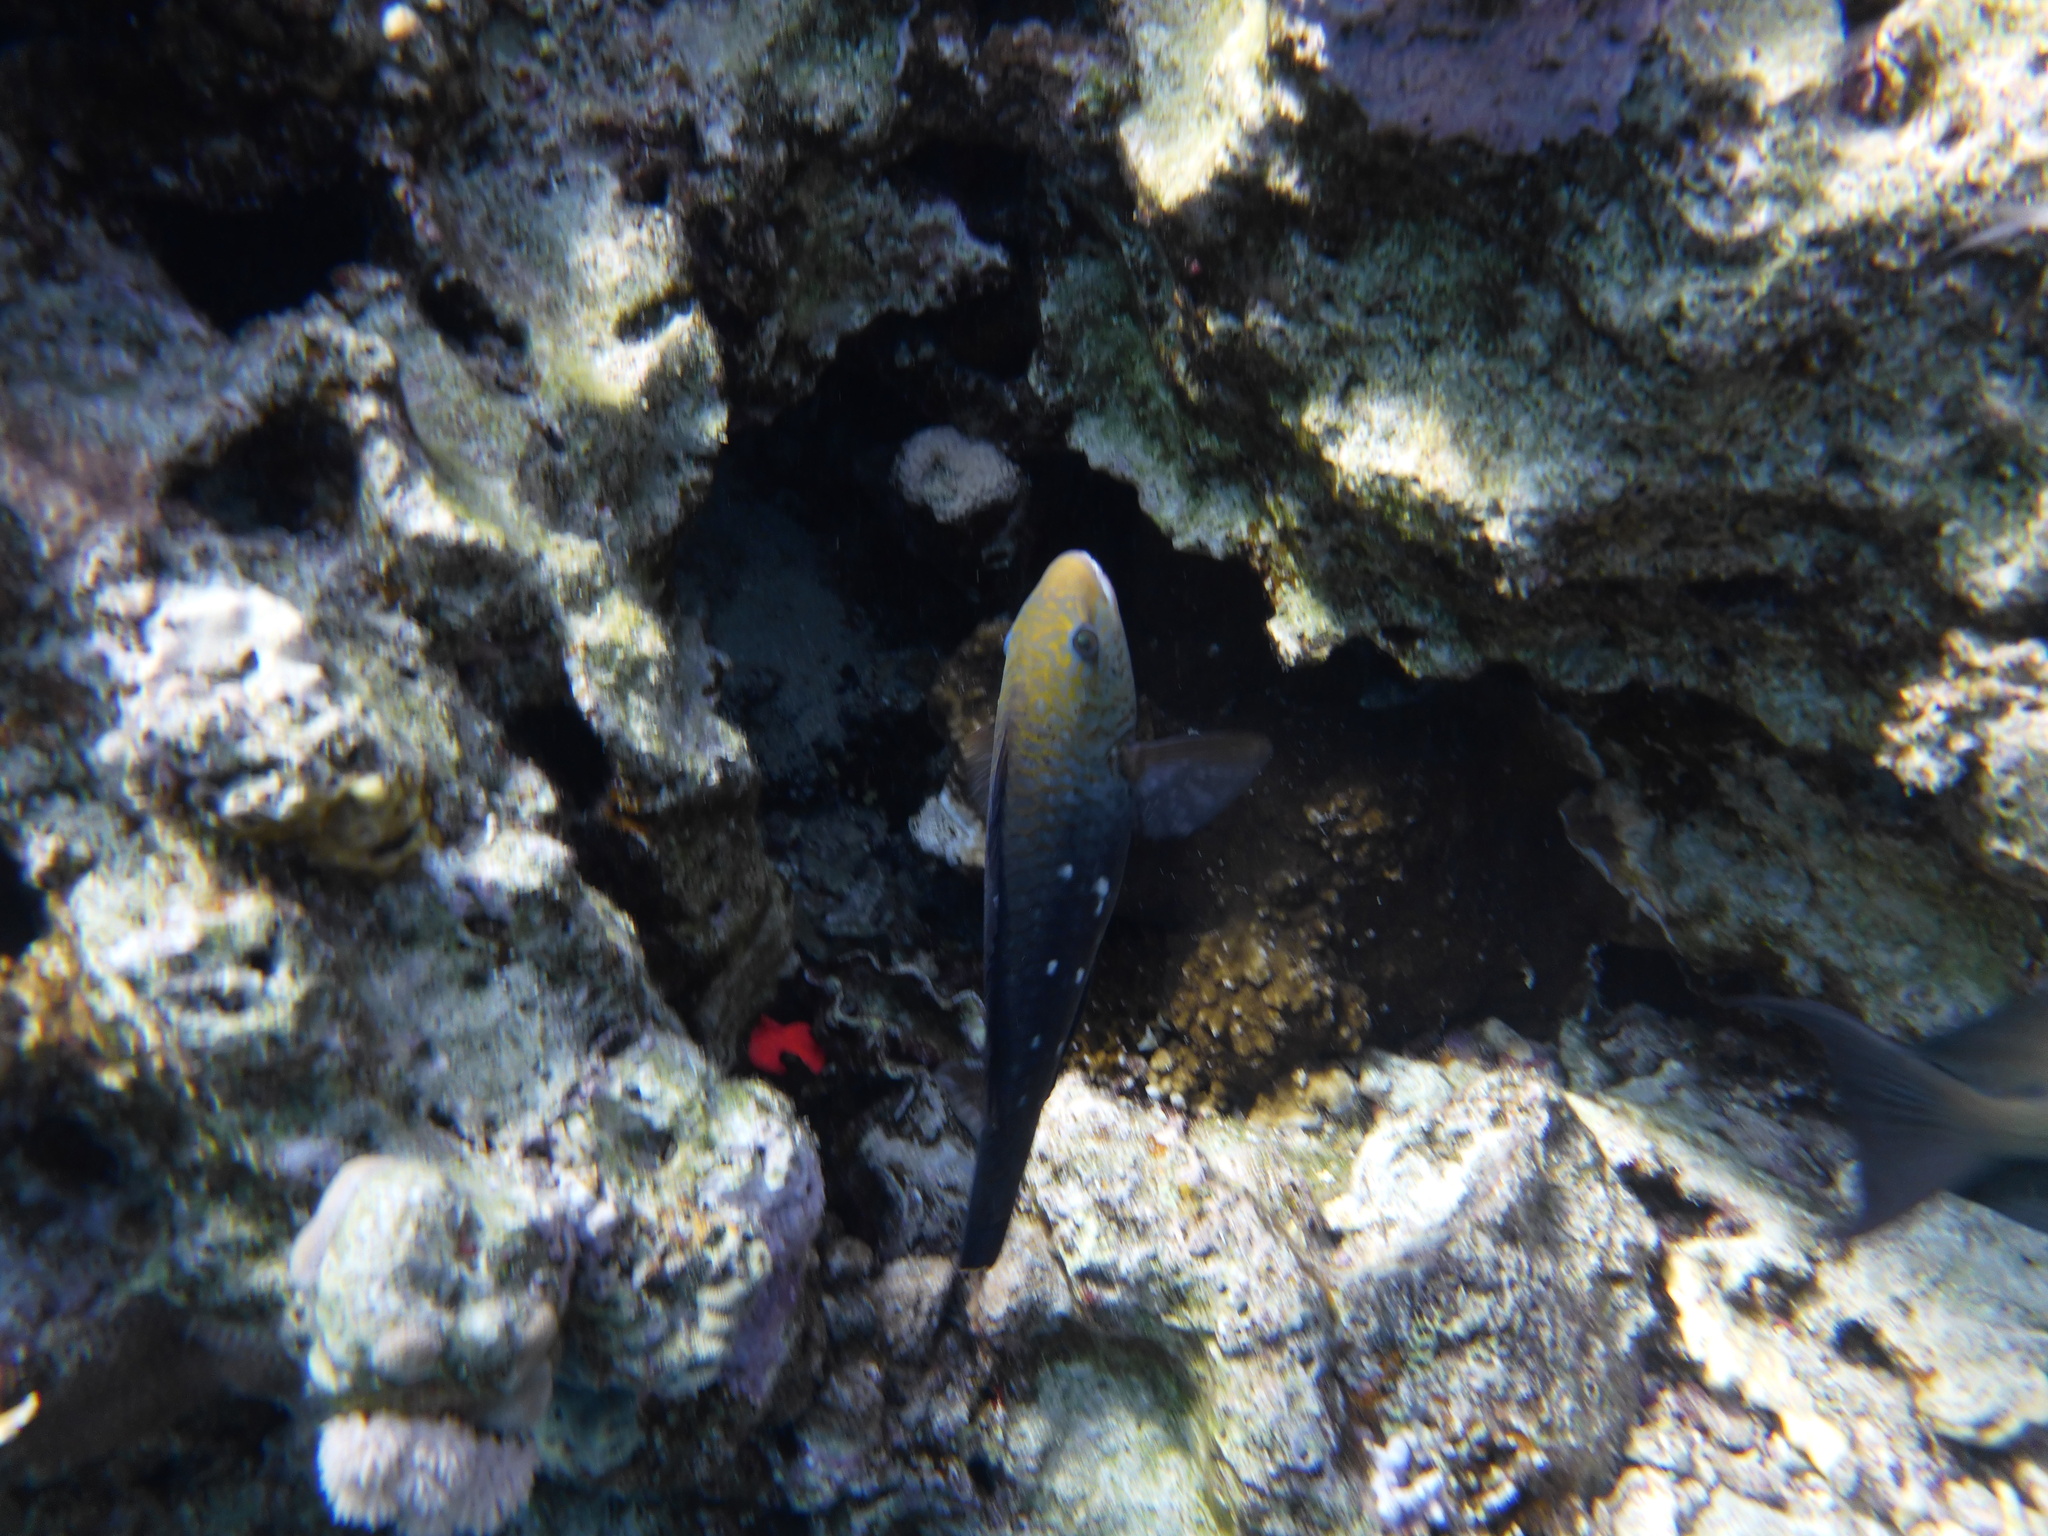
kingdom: Animalia
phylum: Chordata
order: Perciformes
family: Scaridae
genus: Chlorurus
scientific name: Chlorurus sordidus
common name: Bullethead parrotfish
